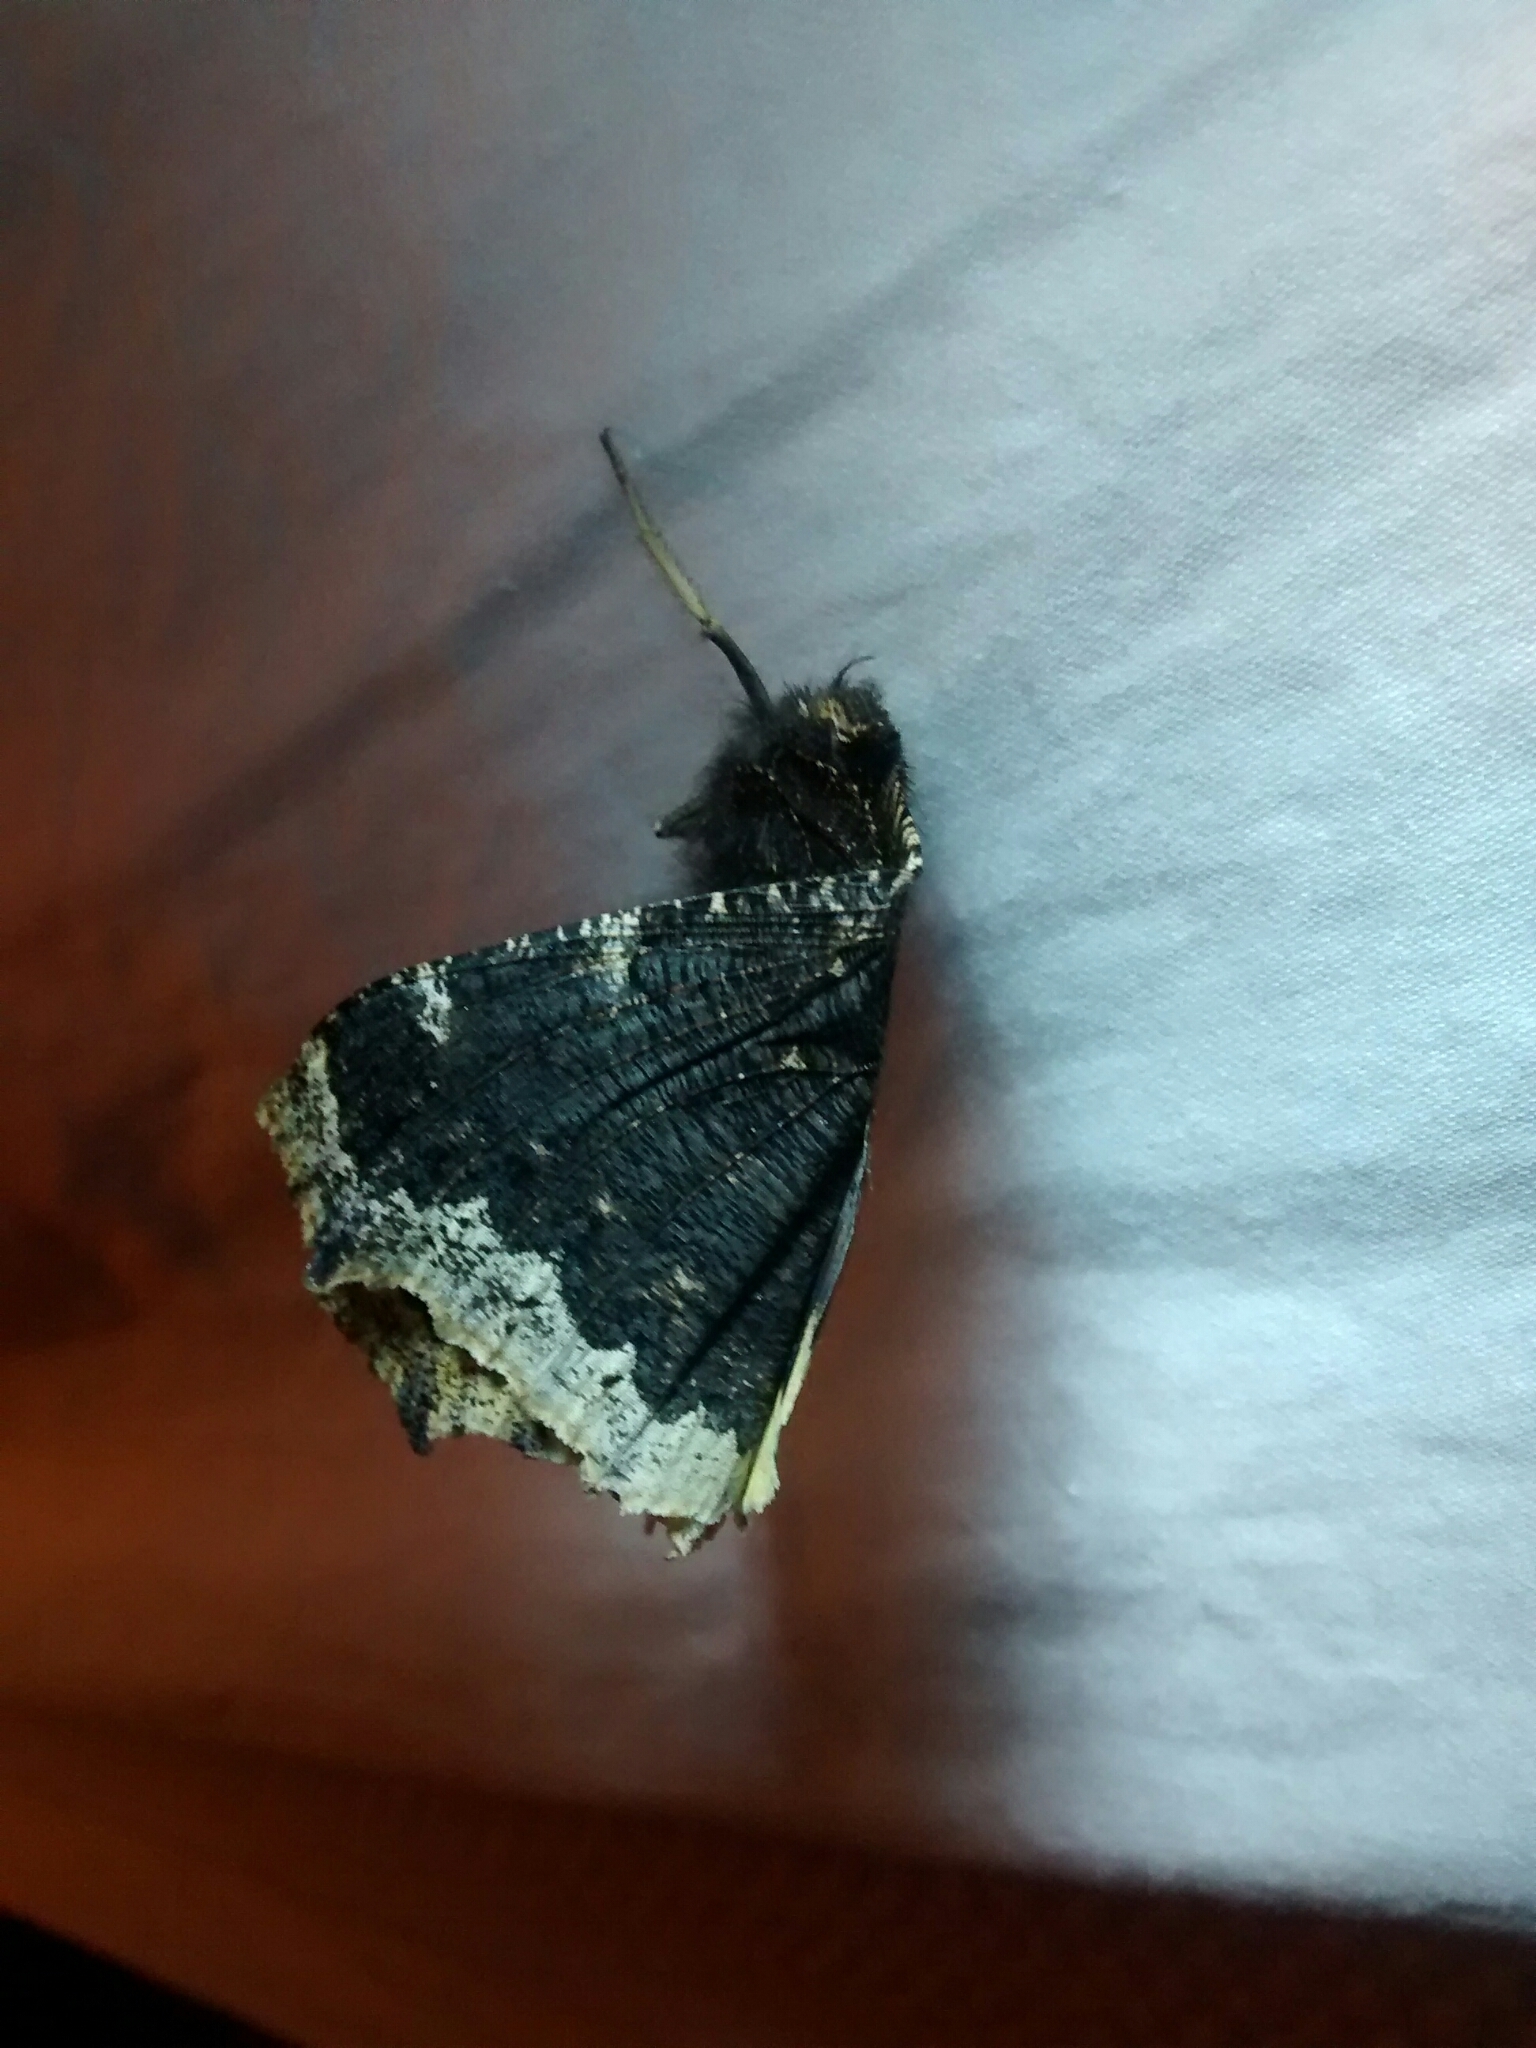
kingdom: Animalia
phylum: Arthropoda
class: Insecta
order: Lepidoptera
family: Nymphalidae
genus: Nymphalis
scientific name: Nymphalis antiopa
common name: Camberwell beauty
